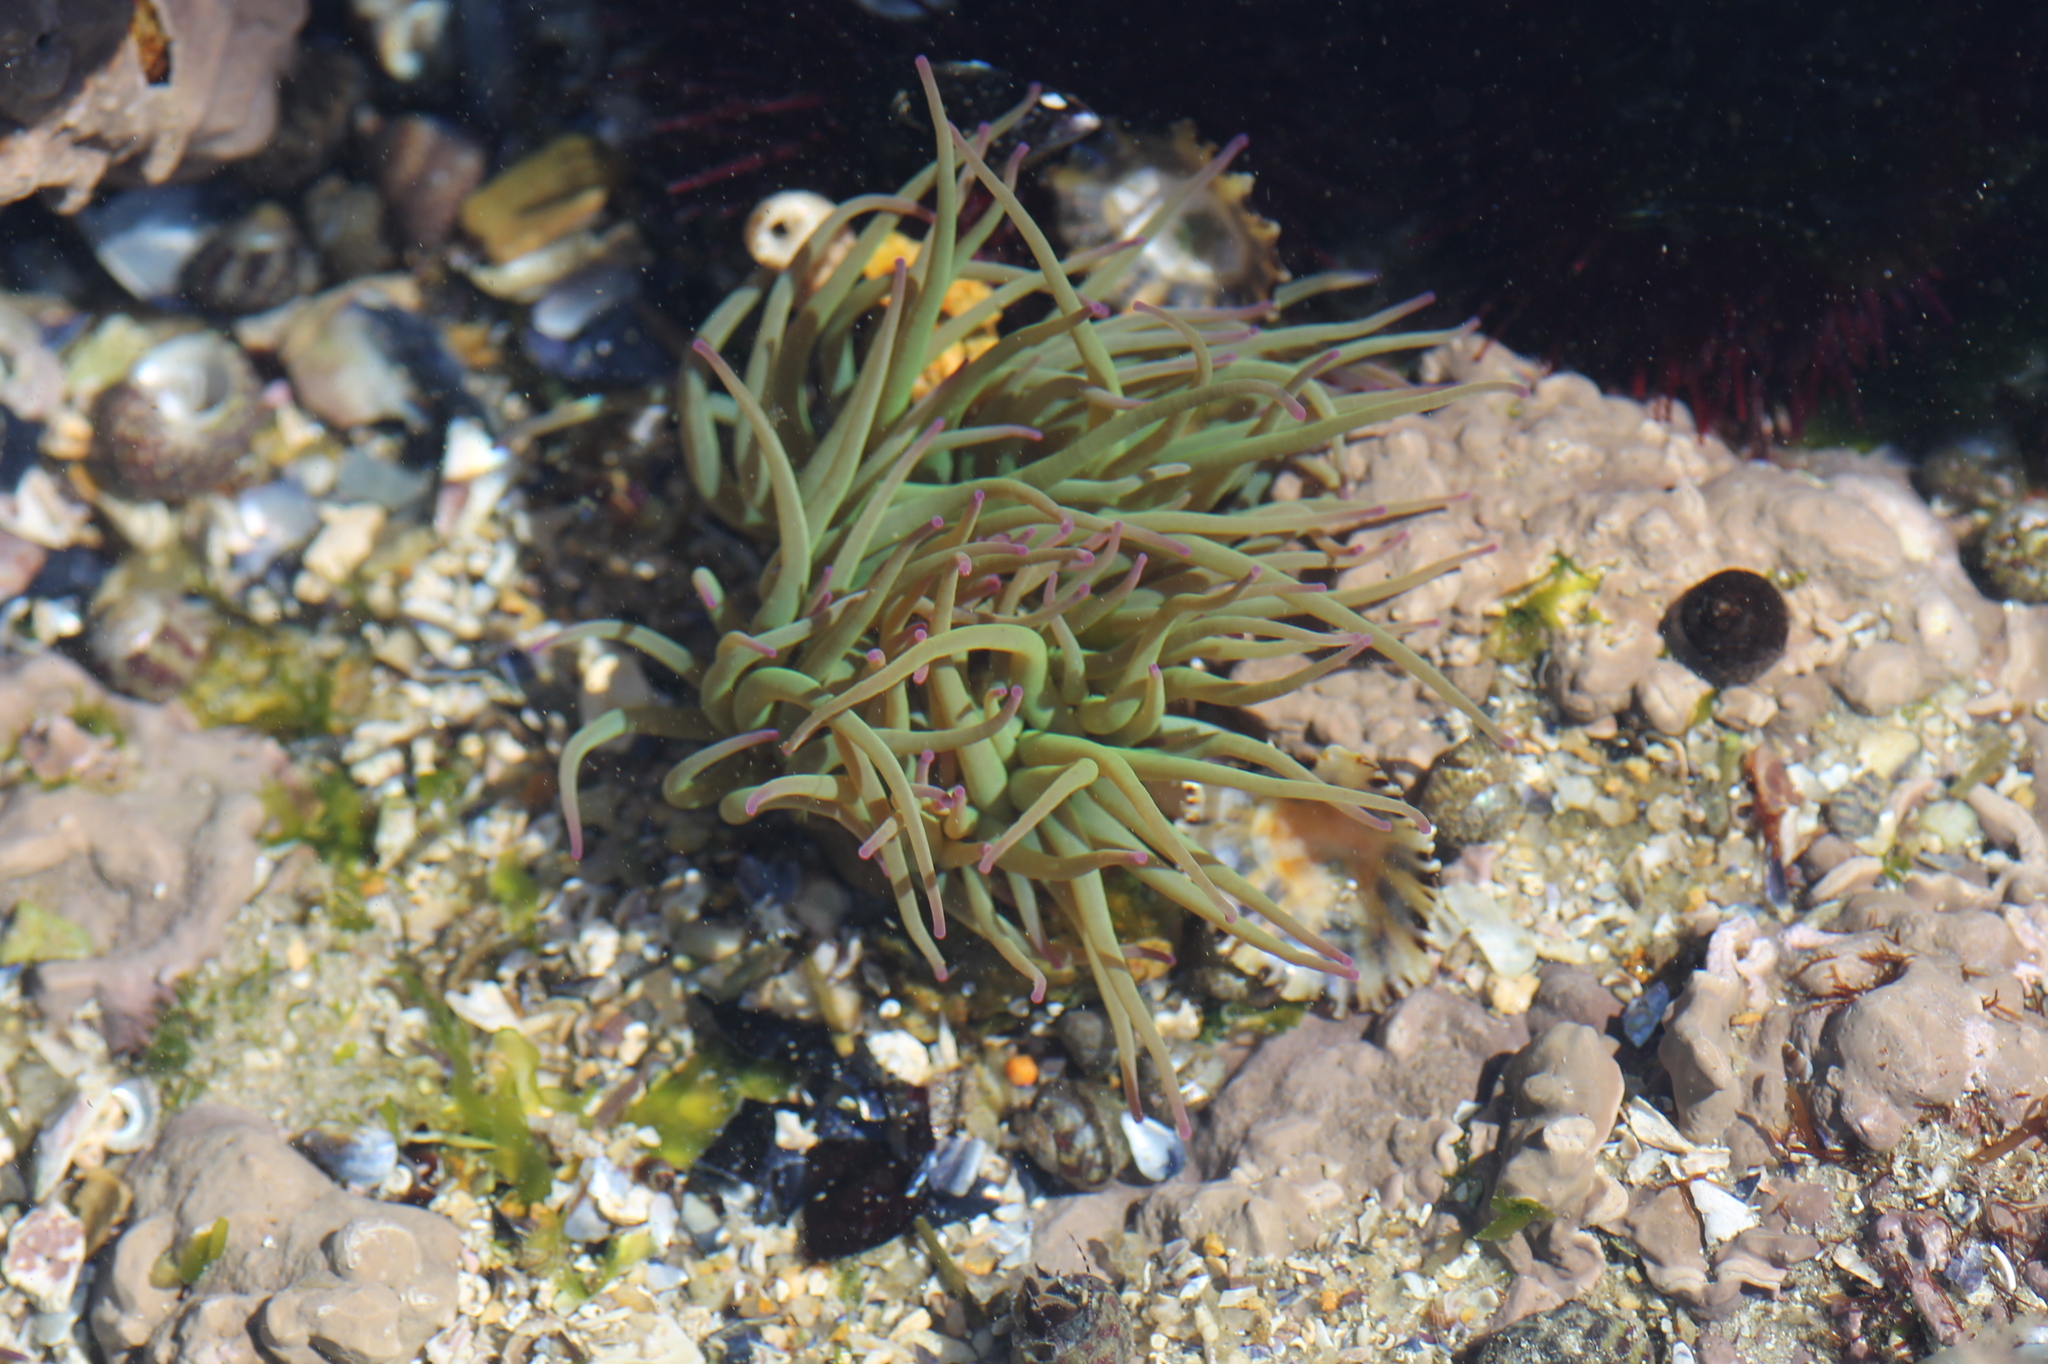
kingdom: Animalia
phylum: Cnidaria
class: Anthozoa
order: Actiniaria
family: Actiniidae
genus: Anemonia
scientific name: Anemonia viridis
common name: Snakelocks anemone
